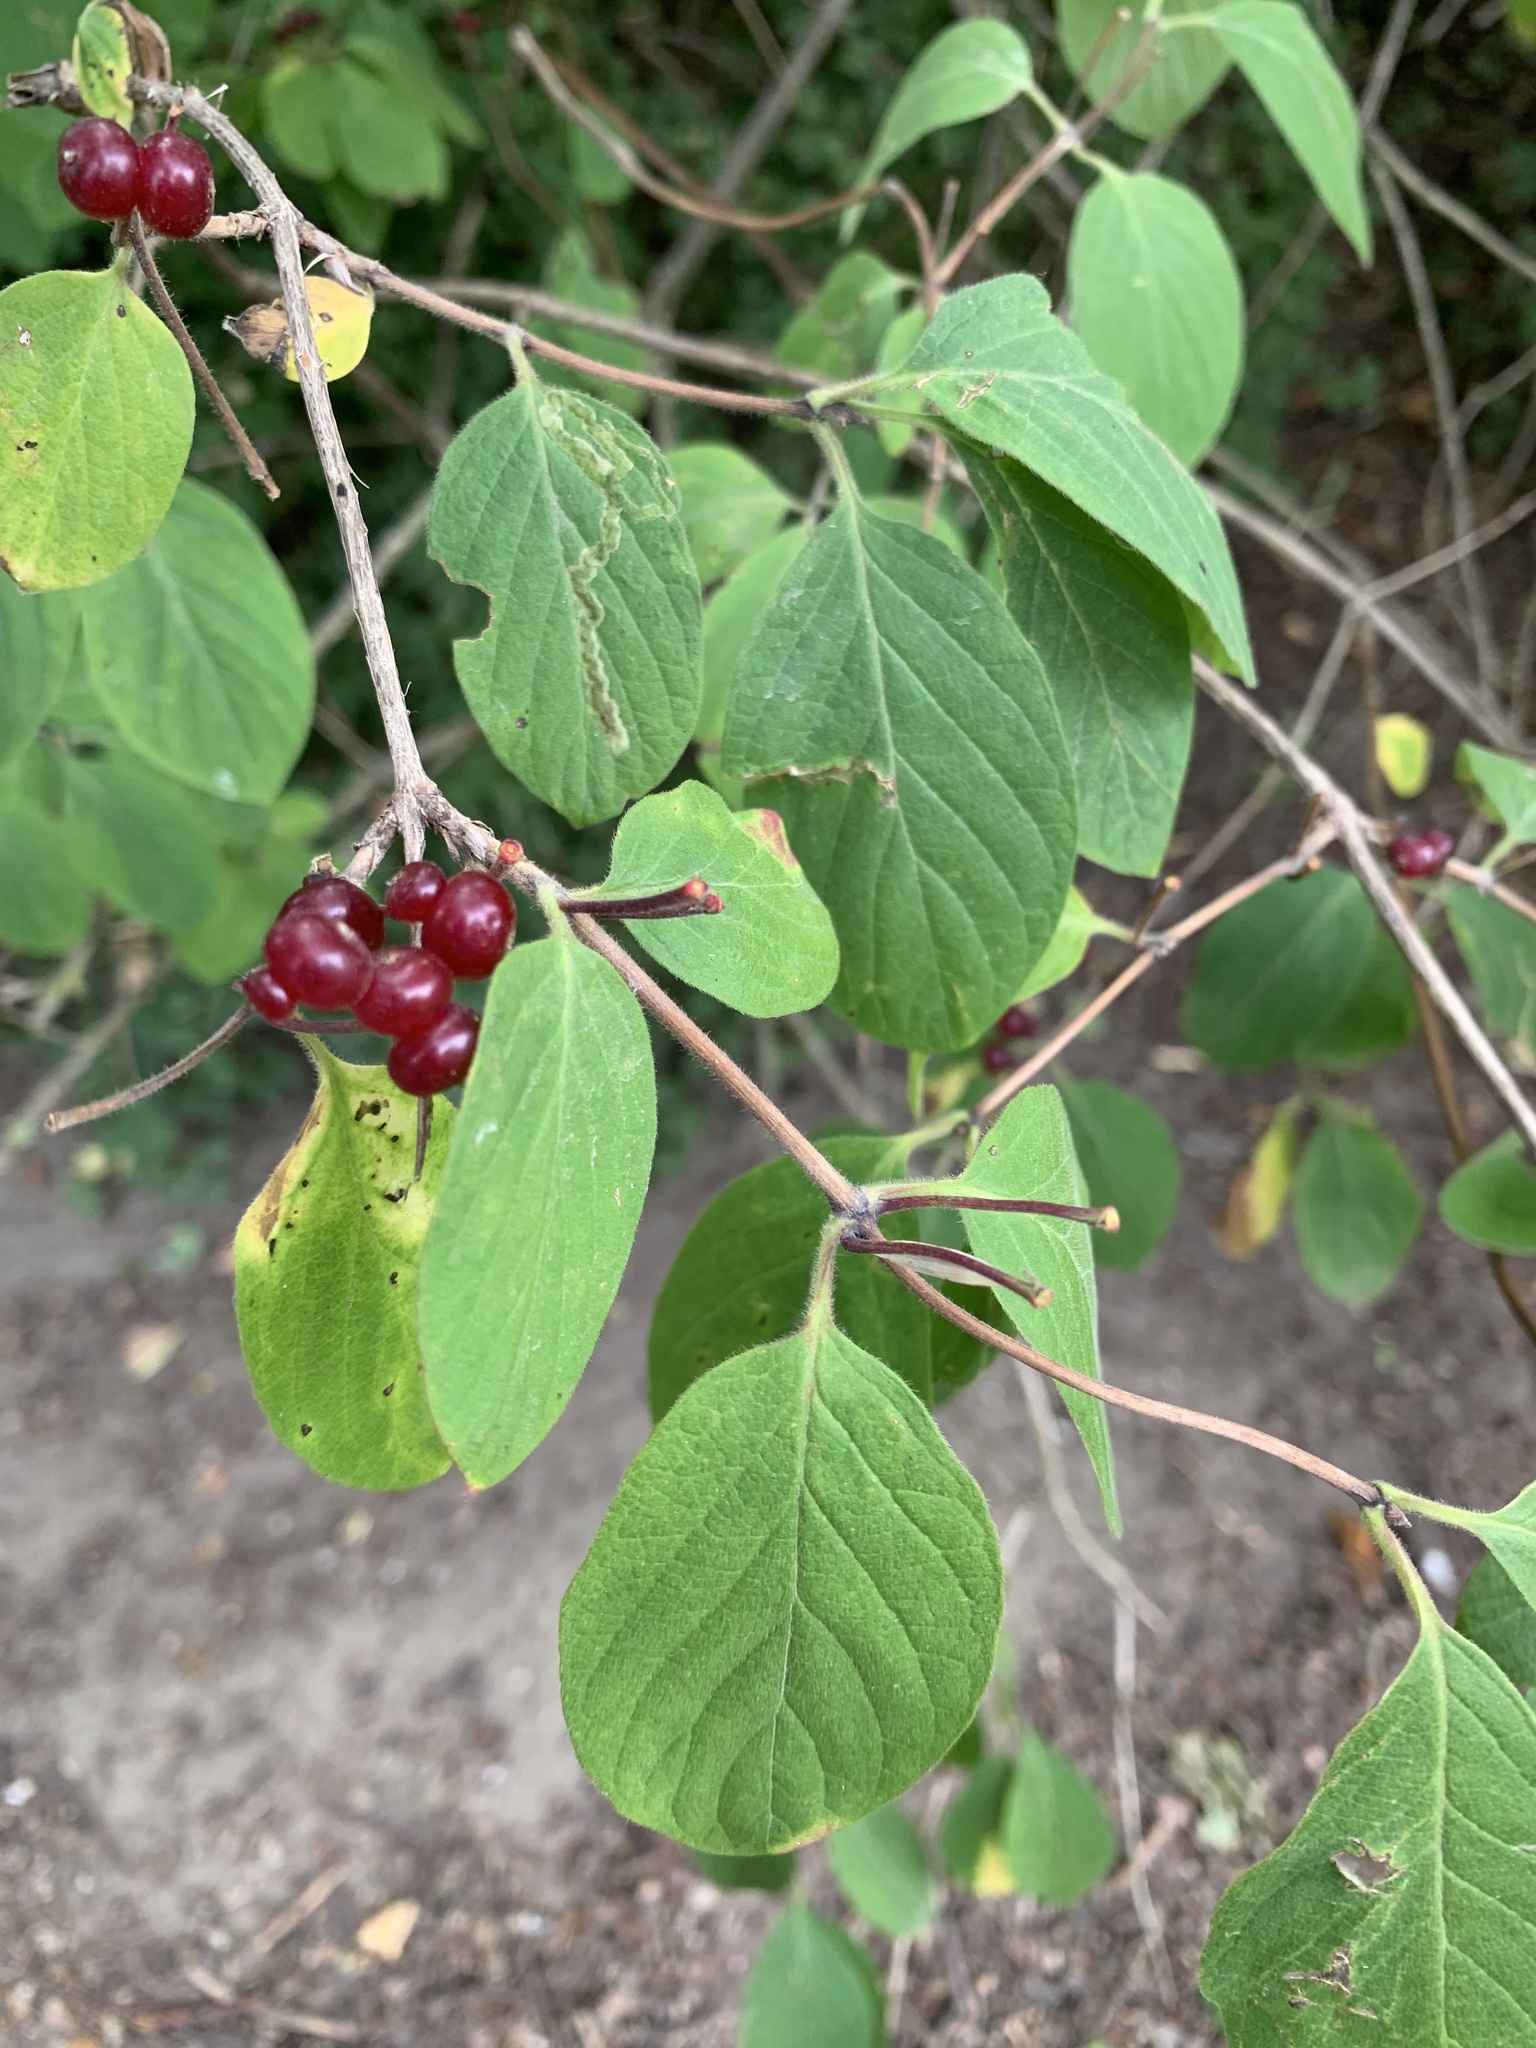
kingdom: Plantae
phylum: Tracheophyta
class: Magnoliopsida
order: Dipsacales
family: Caprifoliaceae
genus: Lonicera
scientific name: Lonicera xylosteum
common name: Fly honeysuckle
